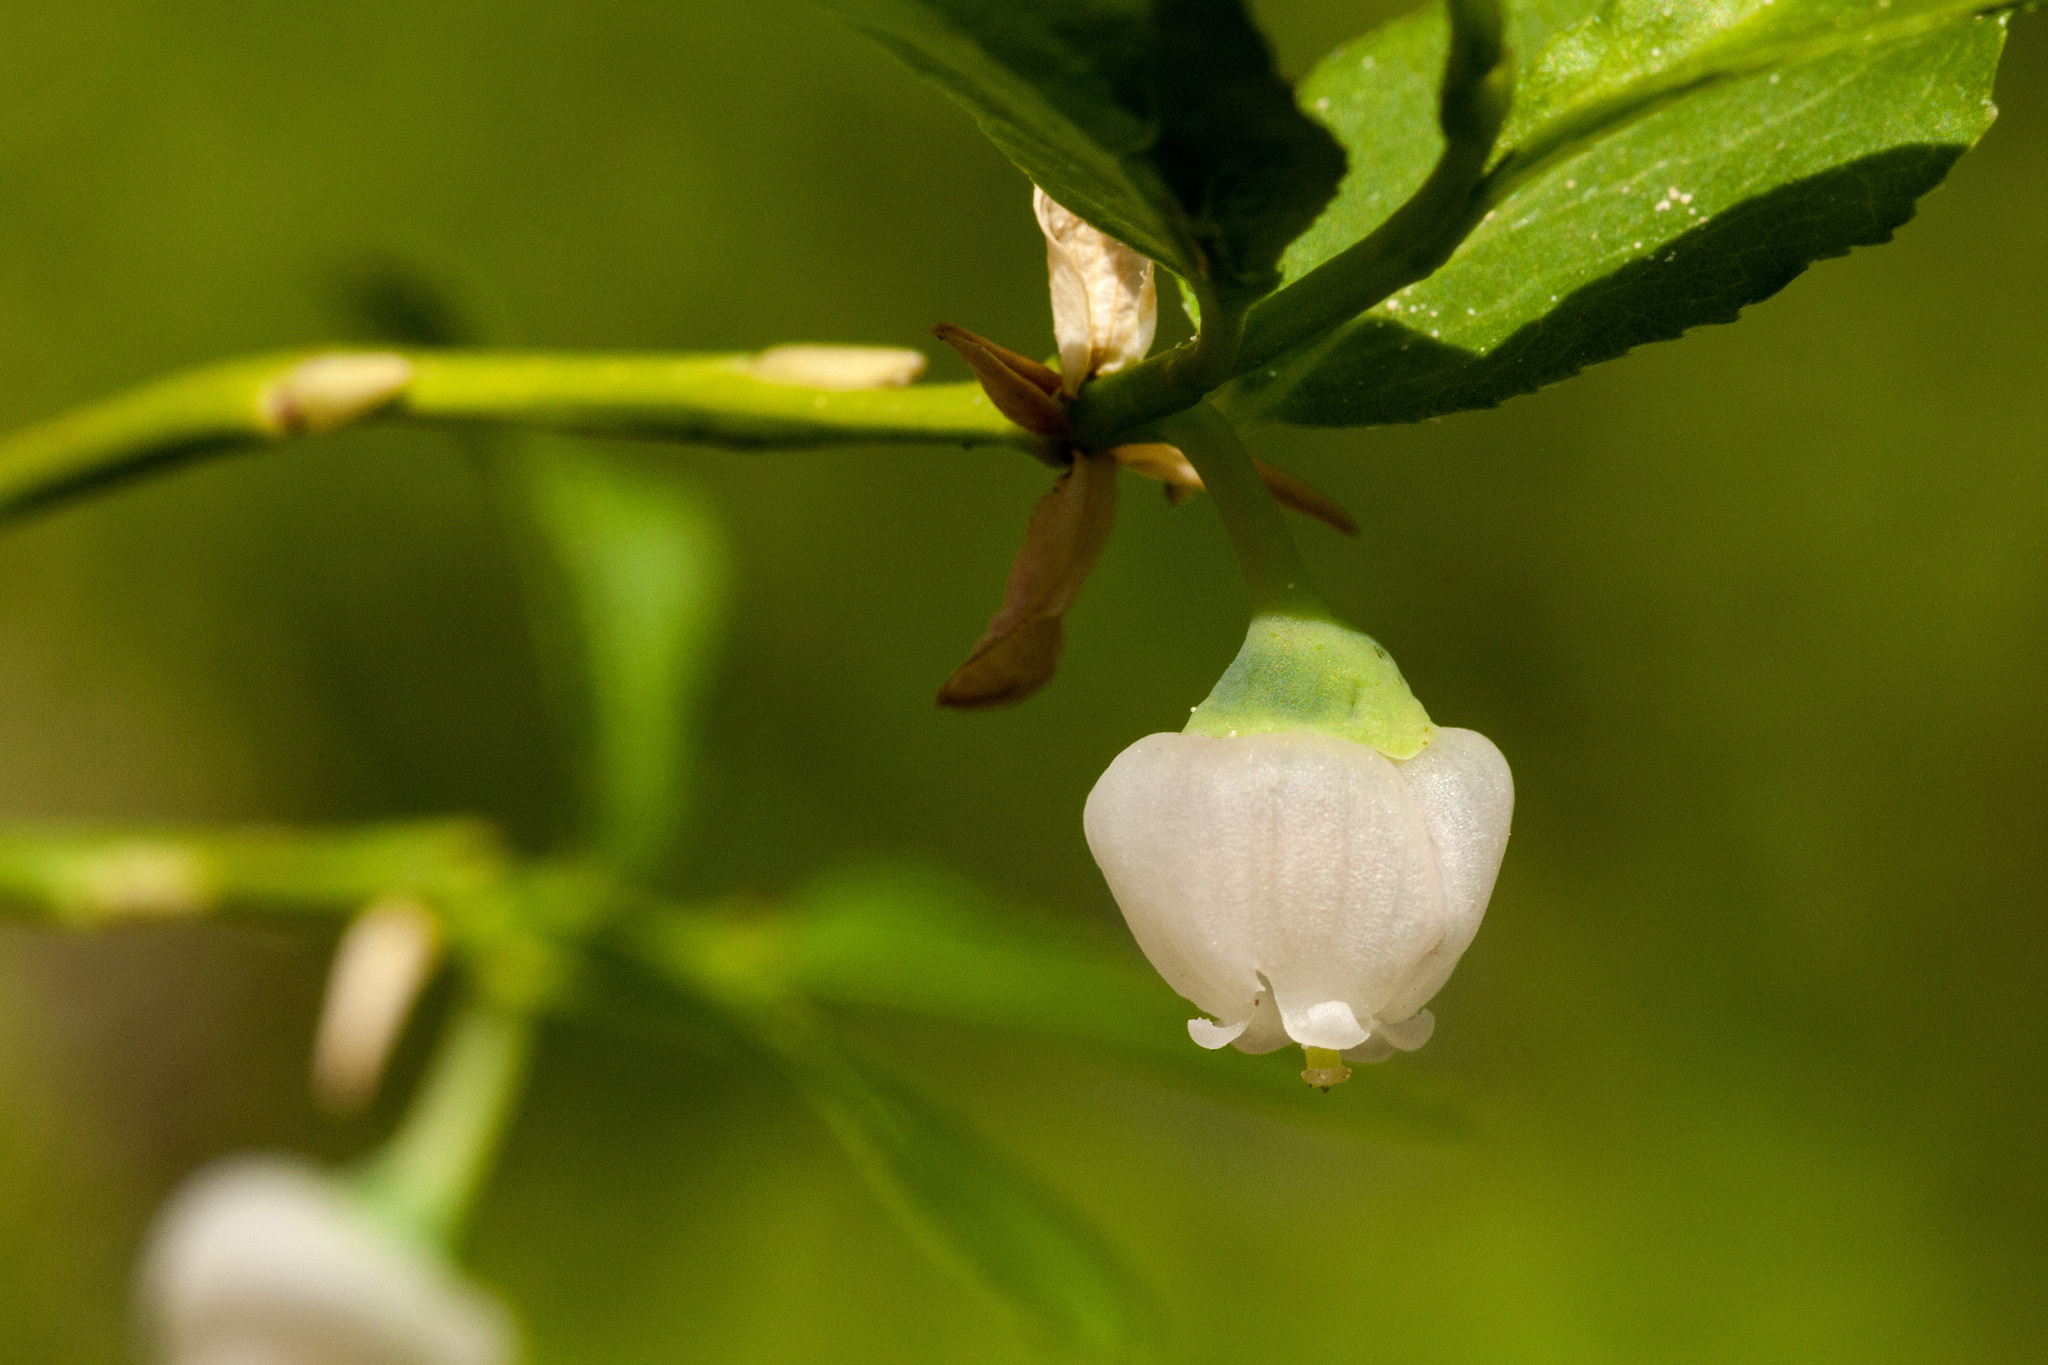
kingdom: Plantae
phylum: Tracheophyta
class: Magnoliopsida
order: Ericales
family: Ericaceae
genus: Vaccinium
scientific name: Vaccinium myrtillus
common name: Bilberry
